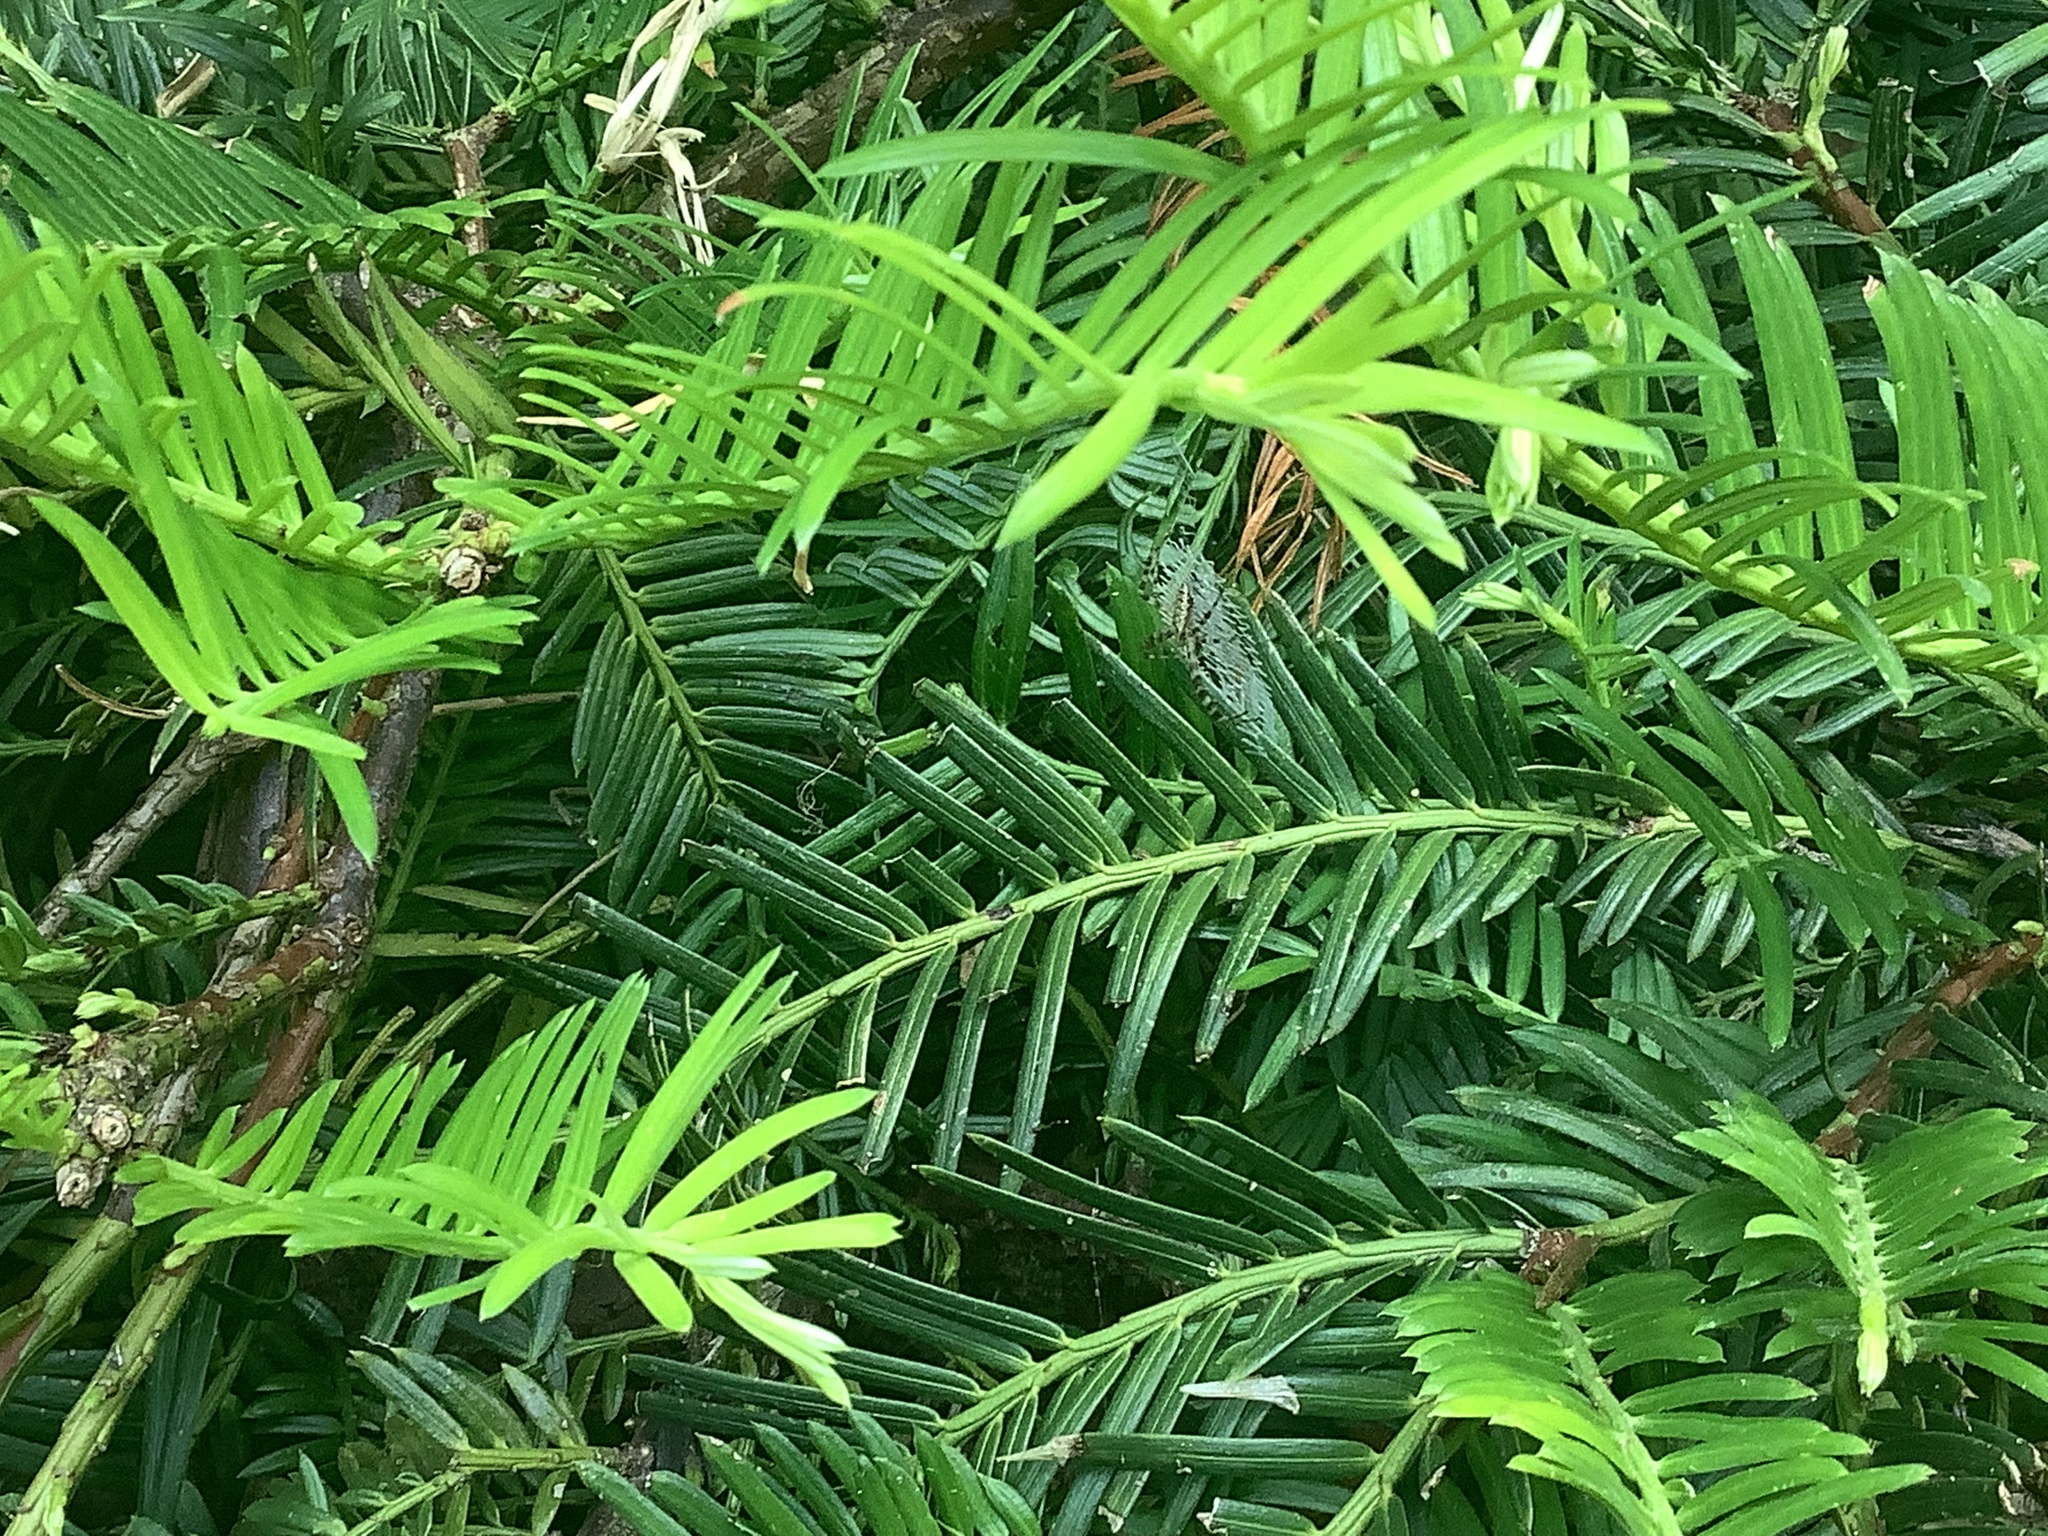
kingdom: Animalia
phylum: Arthropoda
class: Arachnida
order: Araneae
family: Araneidae
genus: Argiope
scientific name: Argiope aurantia
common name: Orb weavers
